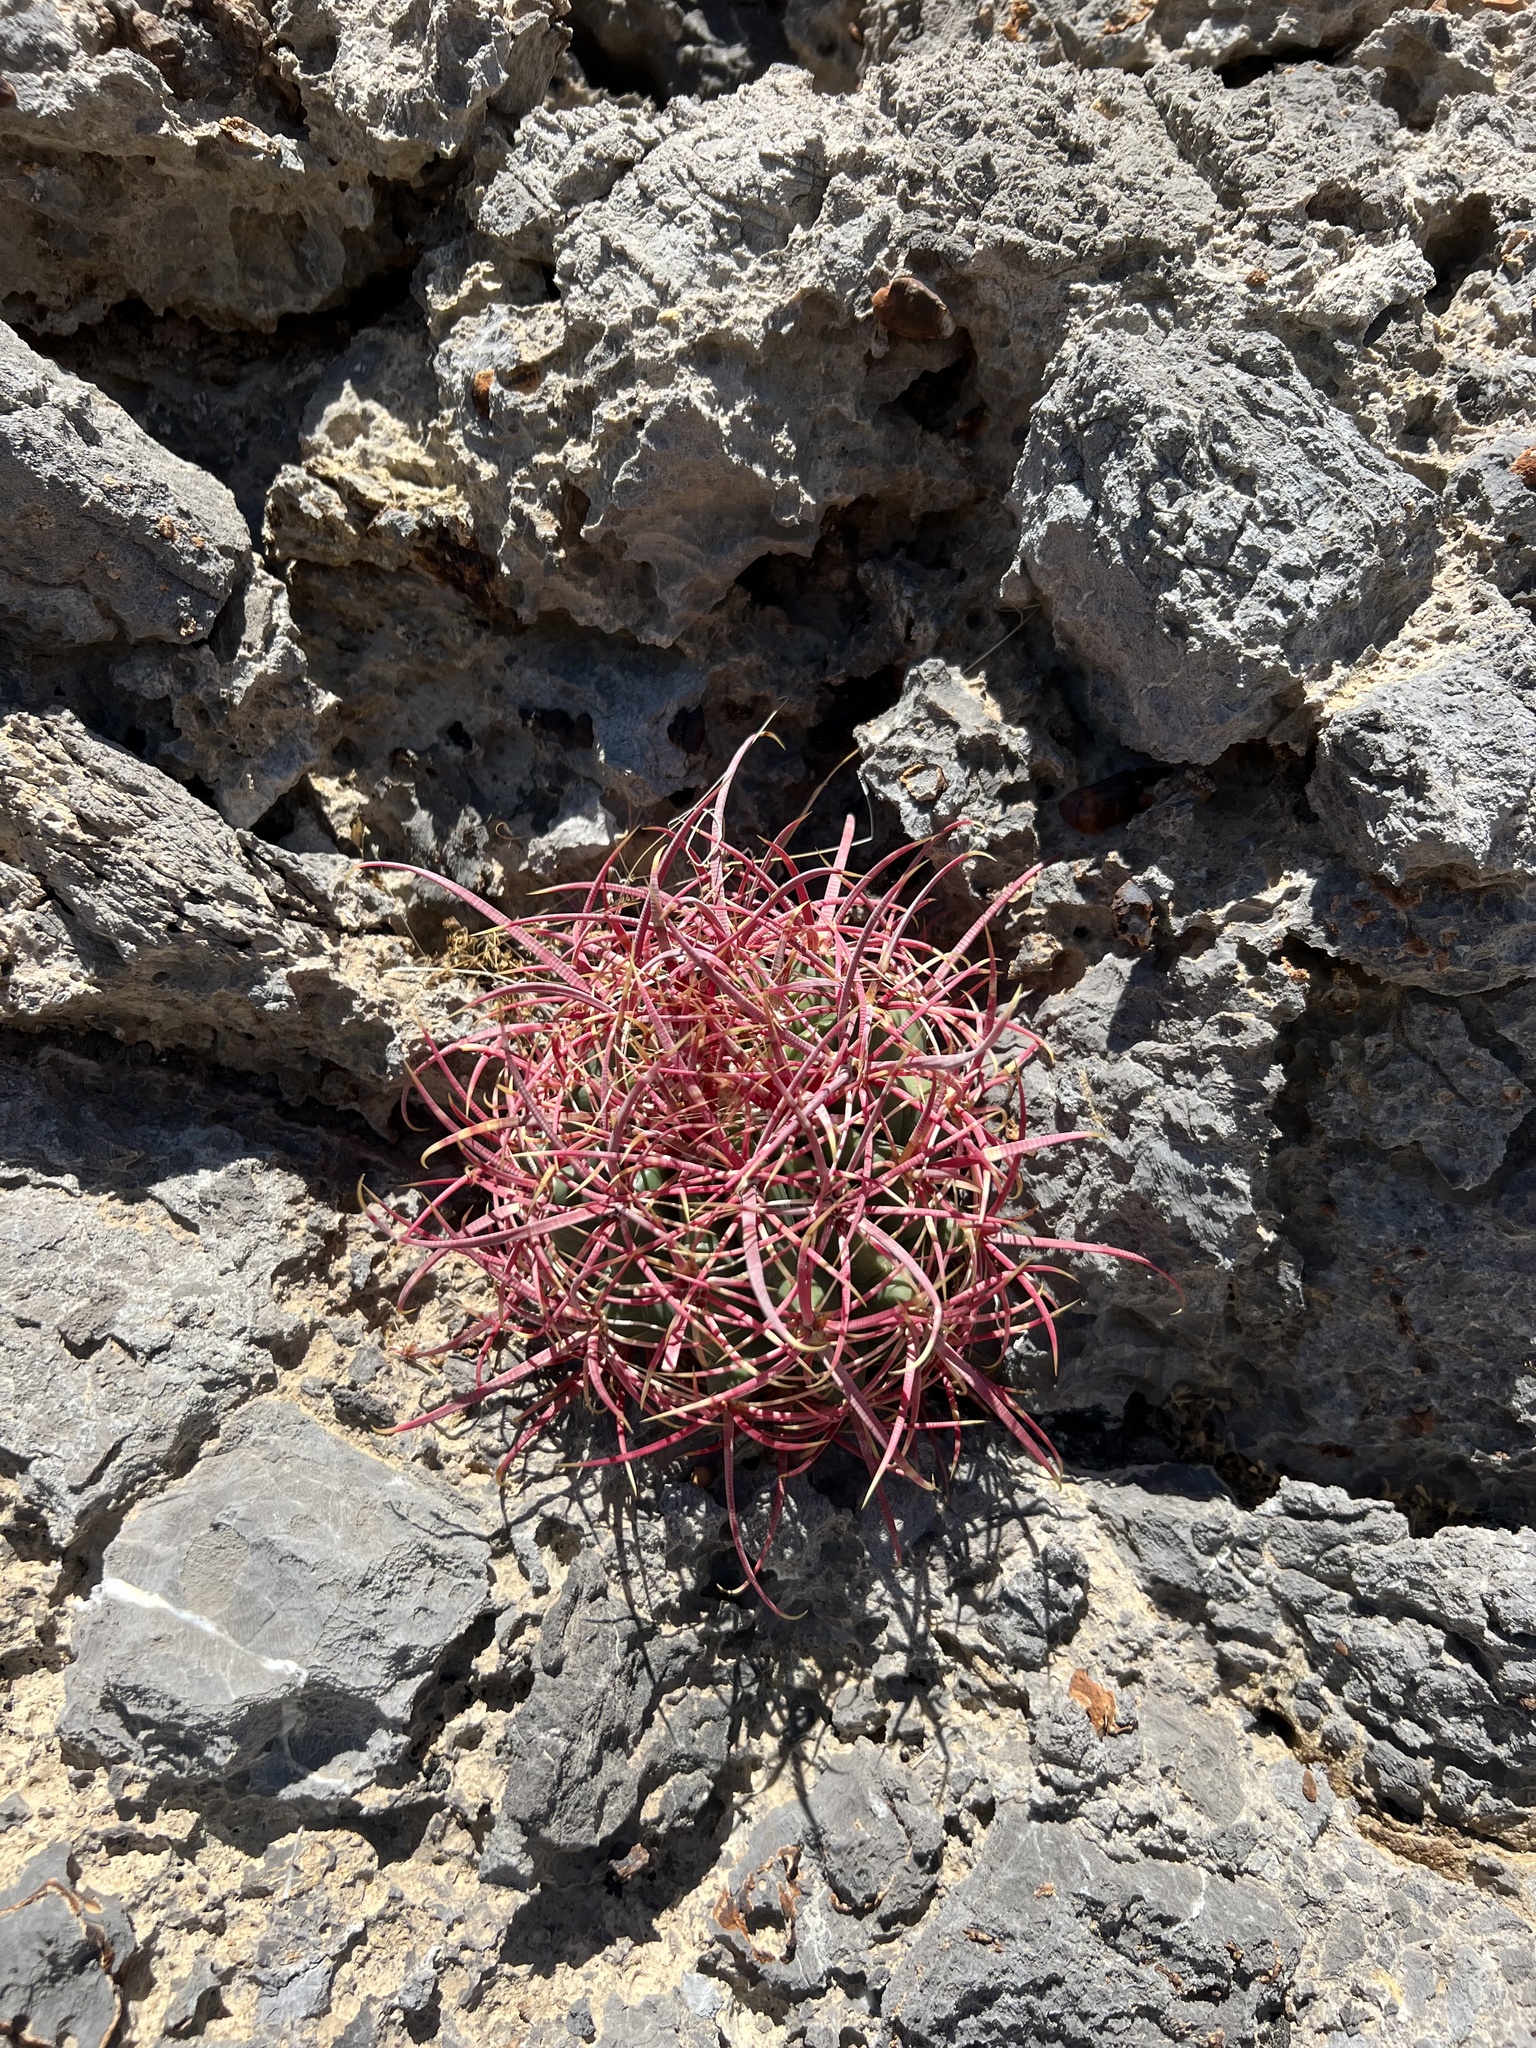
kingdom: Plantae
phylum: Tracheophyta
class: Magnoliopsida
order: Caryophyllales
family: Cactaceae
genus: Ferocactus
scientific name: Ferocactus cylindraceus
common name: California barrel cactus
